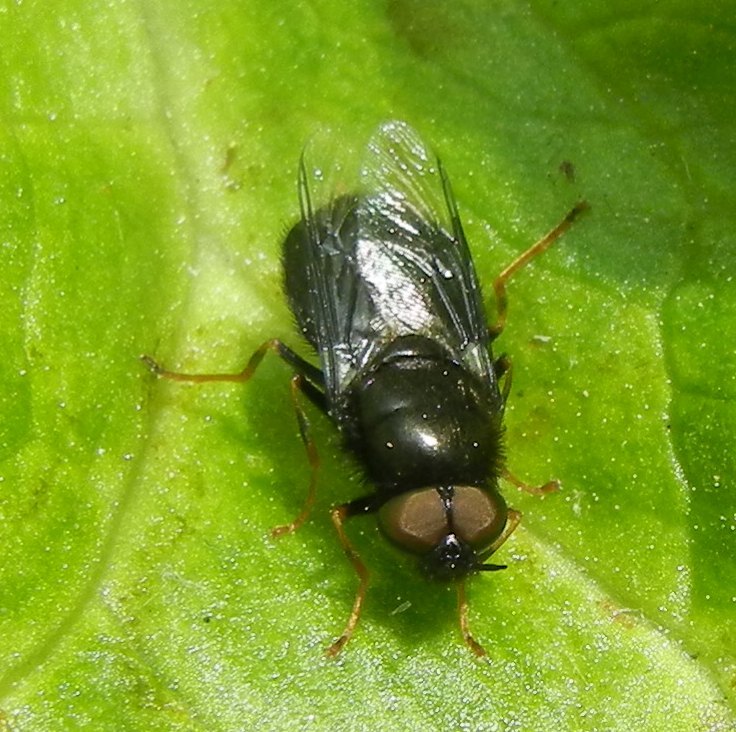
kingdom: Animalia
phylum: Arthropoda
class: Insecta
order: Diptera
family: Stratiomyidae
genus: Odontomyia
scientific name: Odontomyia tigrina
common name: Black colonel
